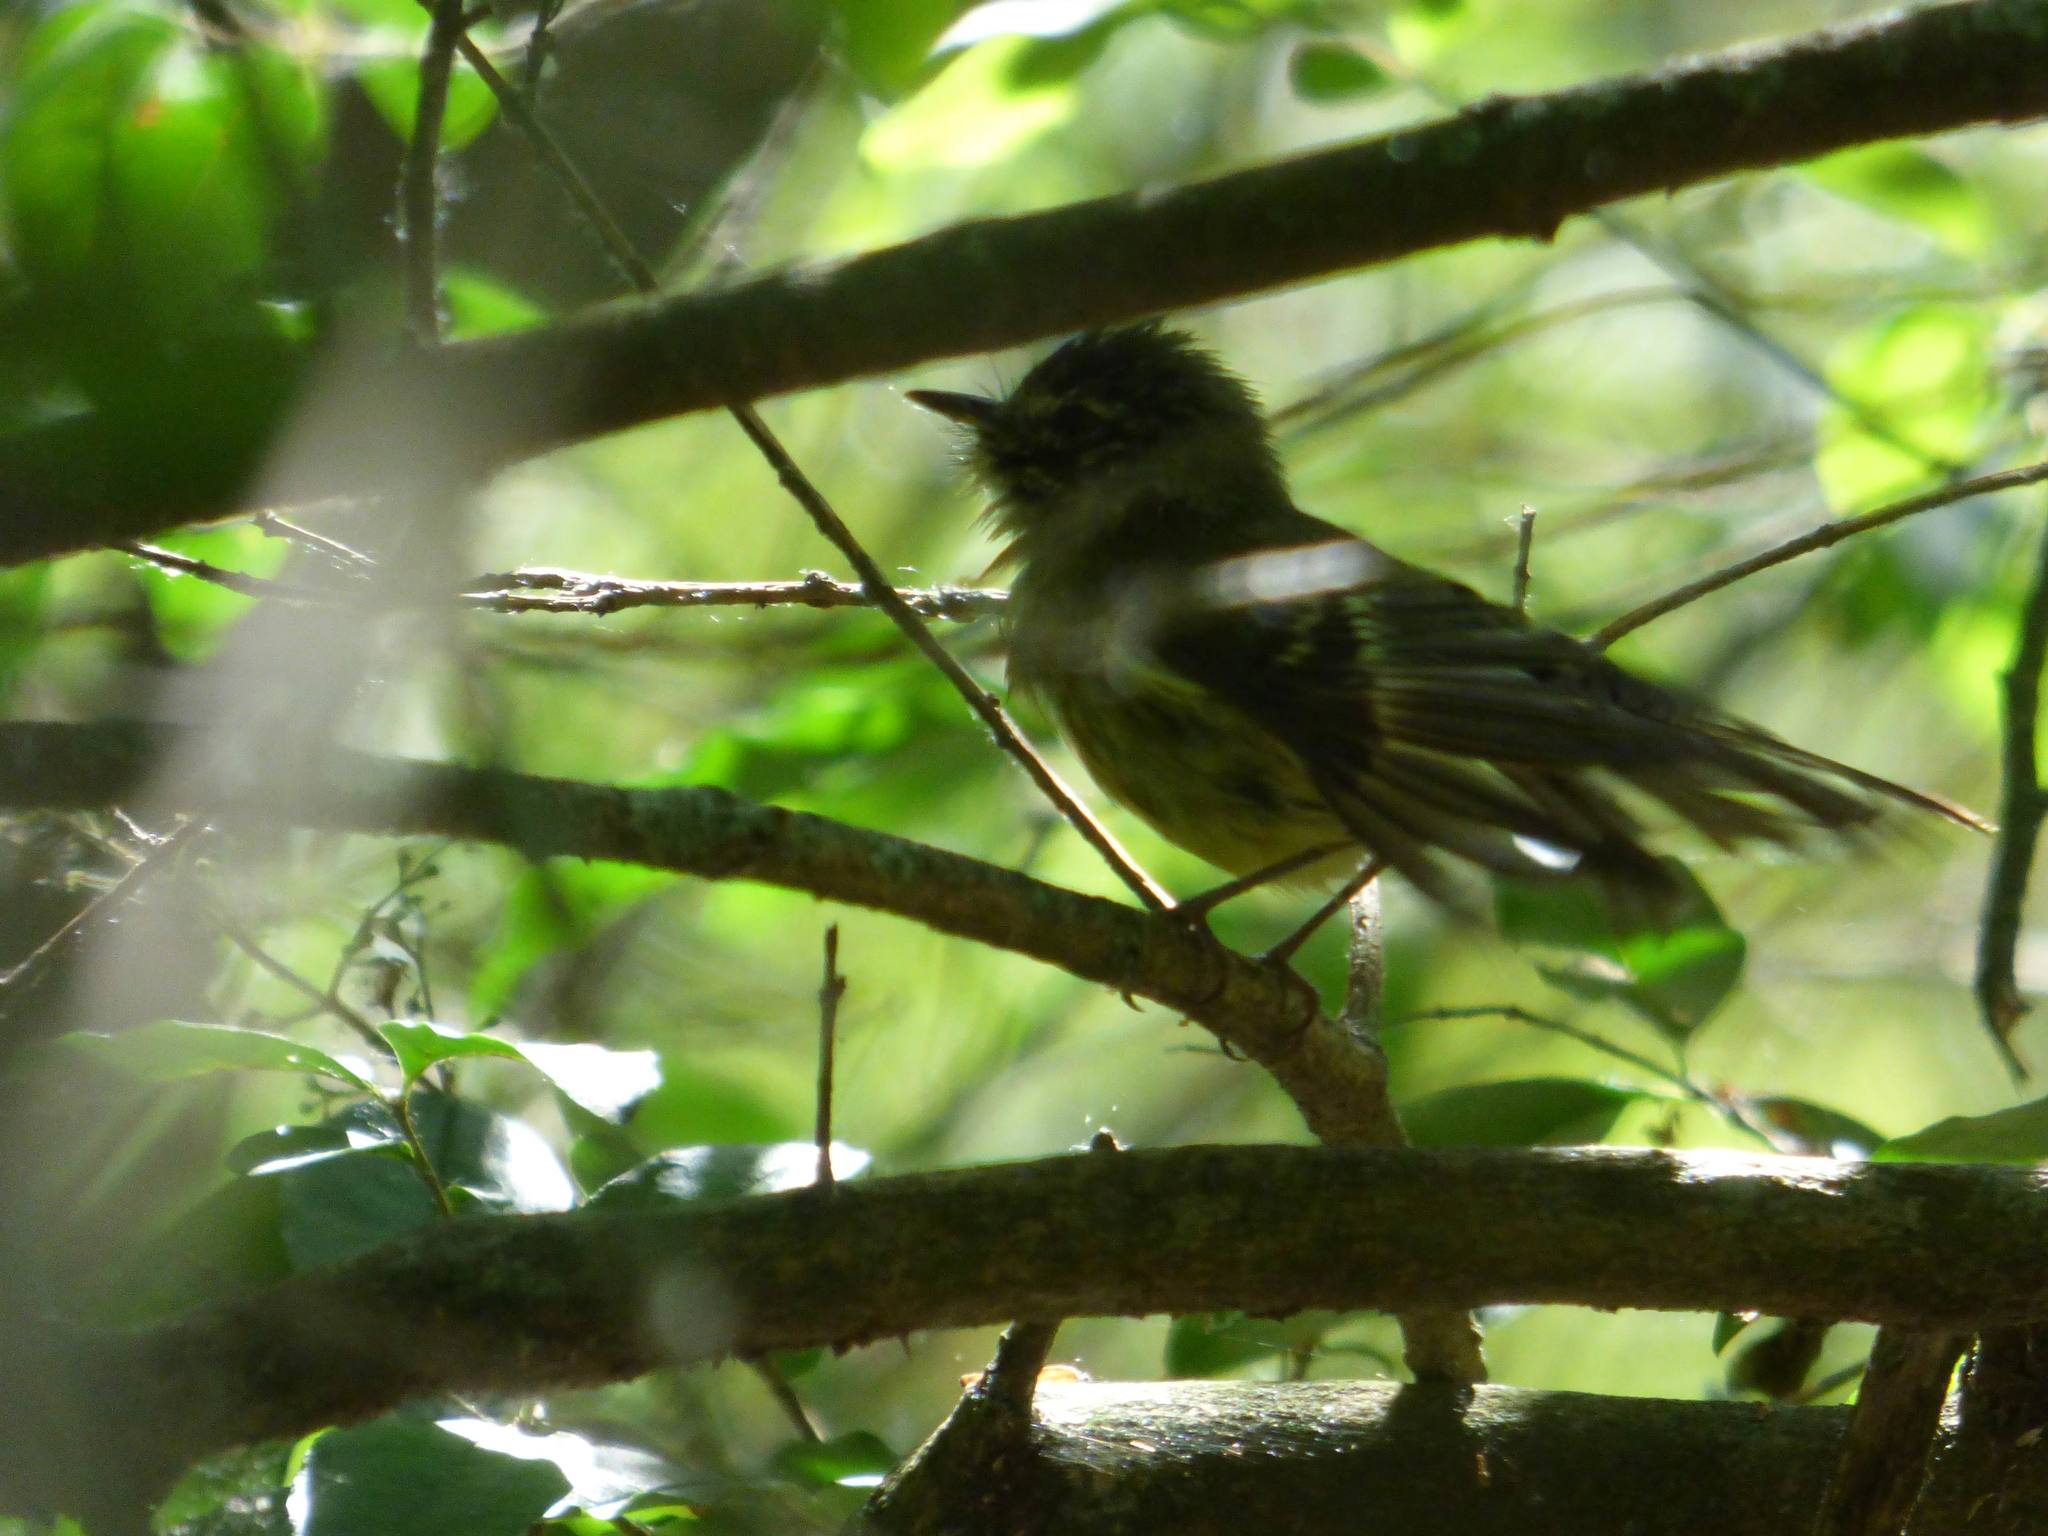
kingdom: Animalia
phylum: Chordata
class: Aves
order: Passeriformes
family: Tyrannidae
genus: Phylloscartes
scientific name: Phylloscartes ventralis
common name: Mottle-cheeked tyrannulet
